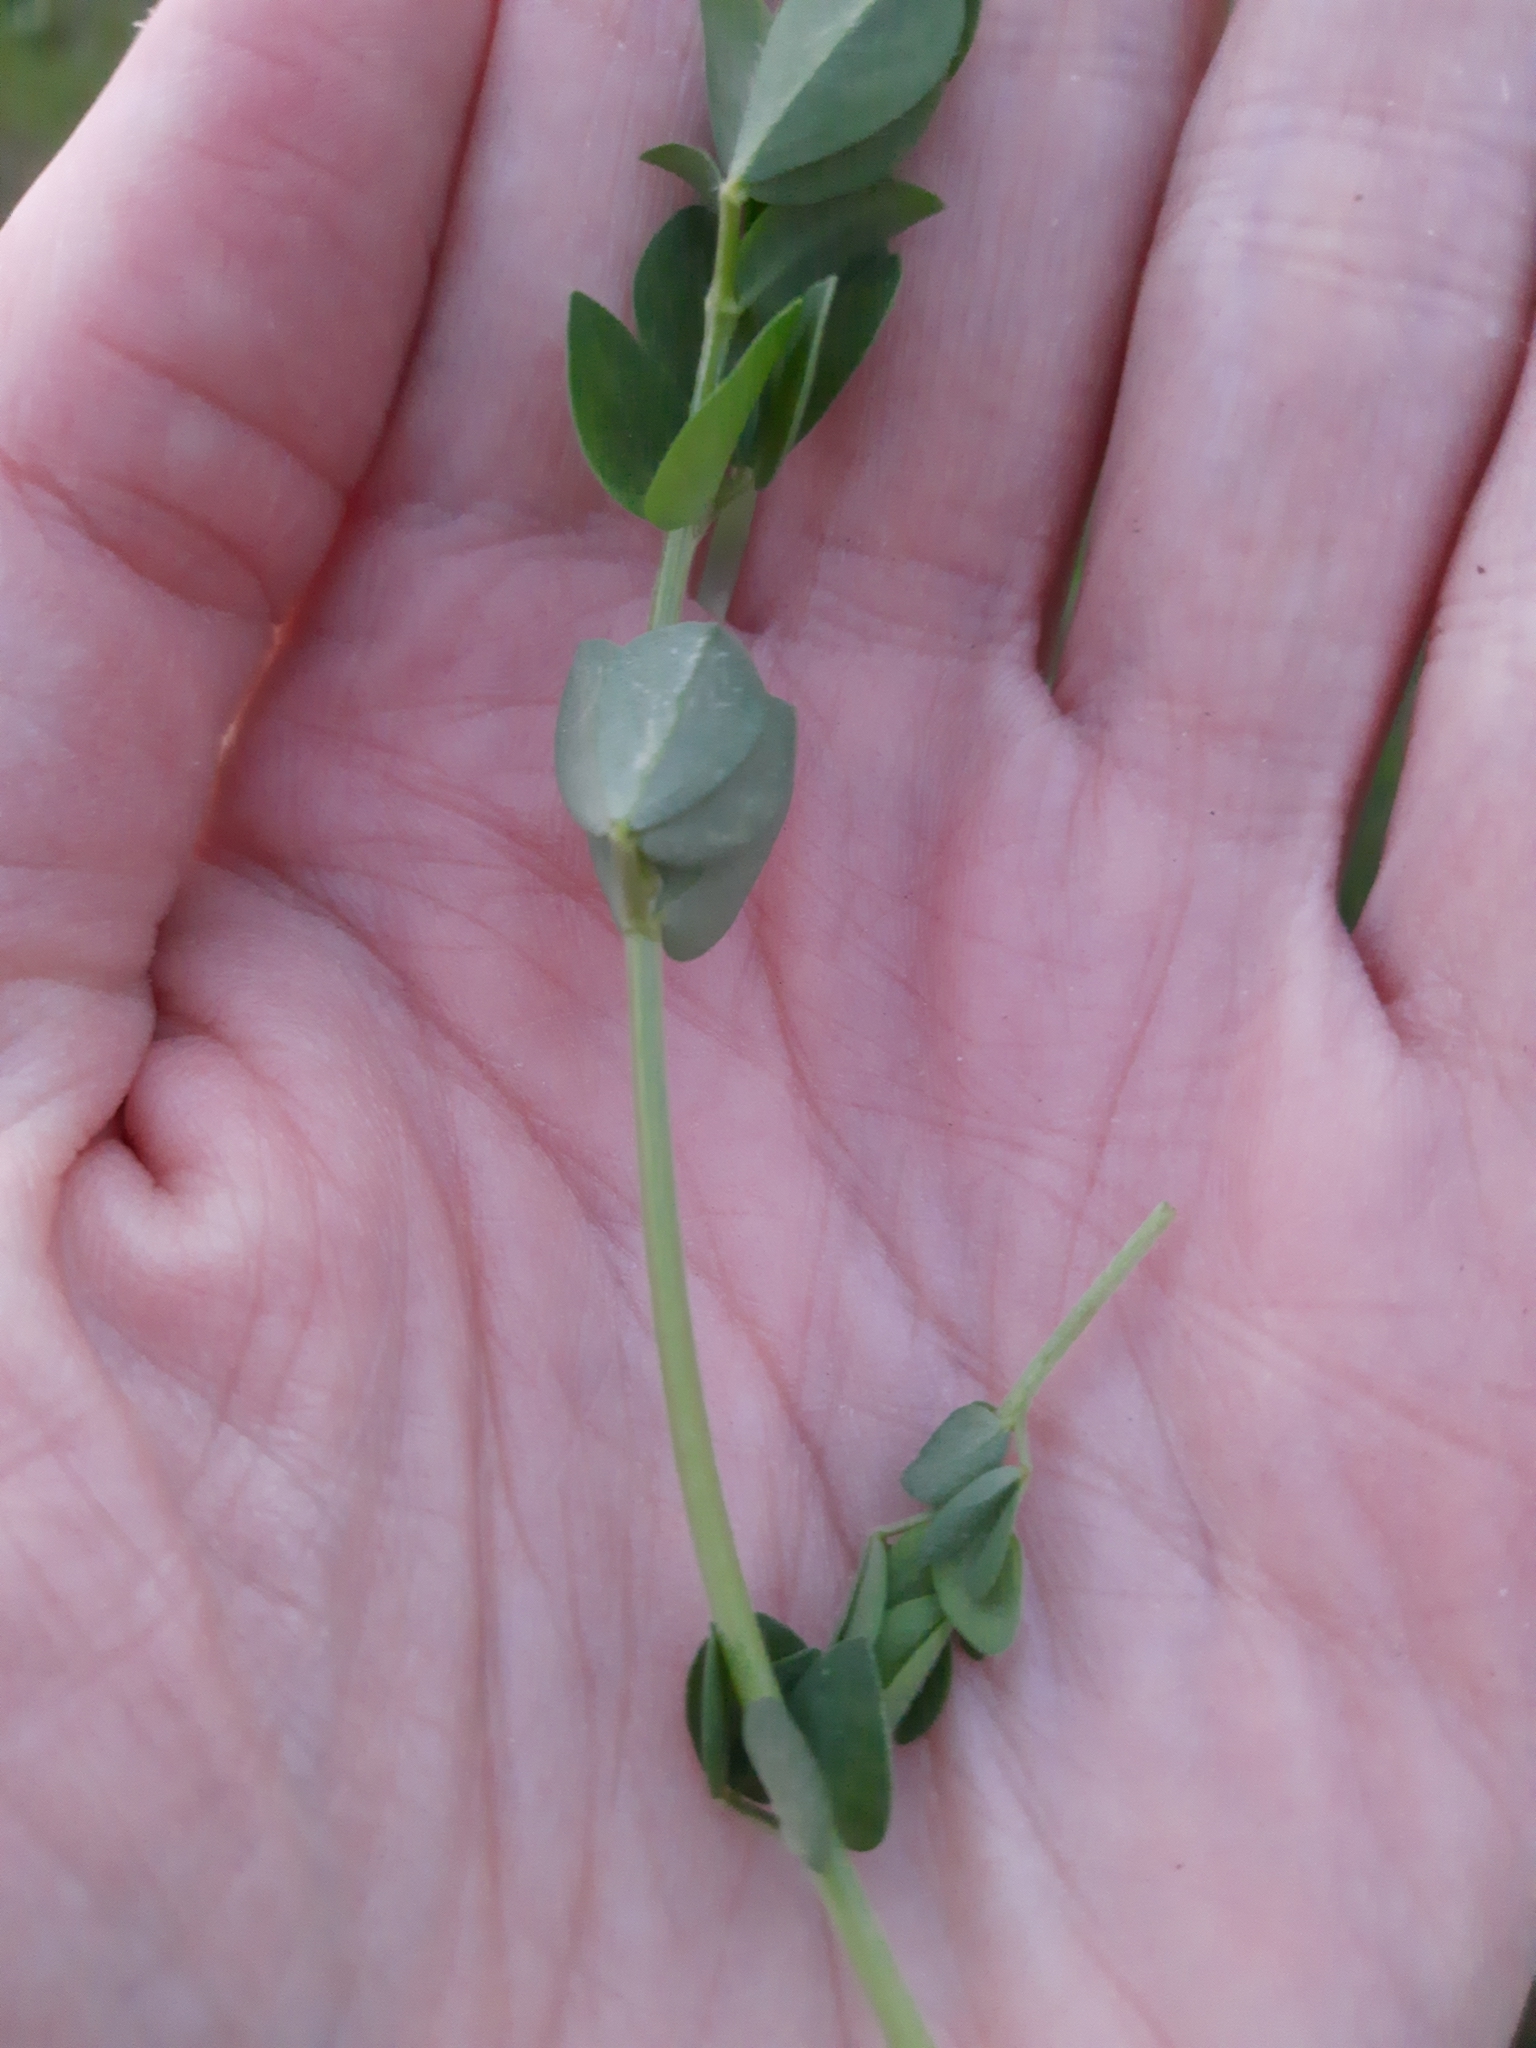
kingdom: Plantae
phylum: Tracheophyta
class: Magnoliopsida
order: Fabales
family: Fabaceae
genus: Lotus
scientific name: Lotus corniculatus
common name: Common bird's-foot-trefoil
